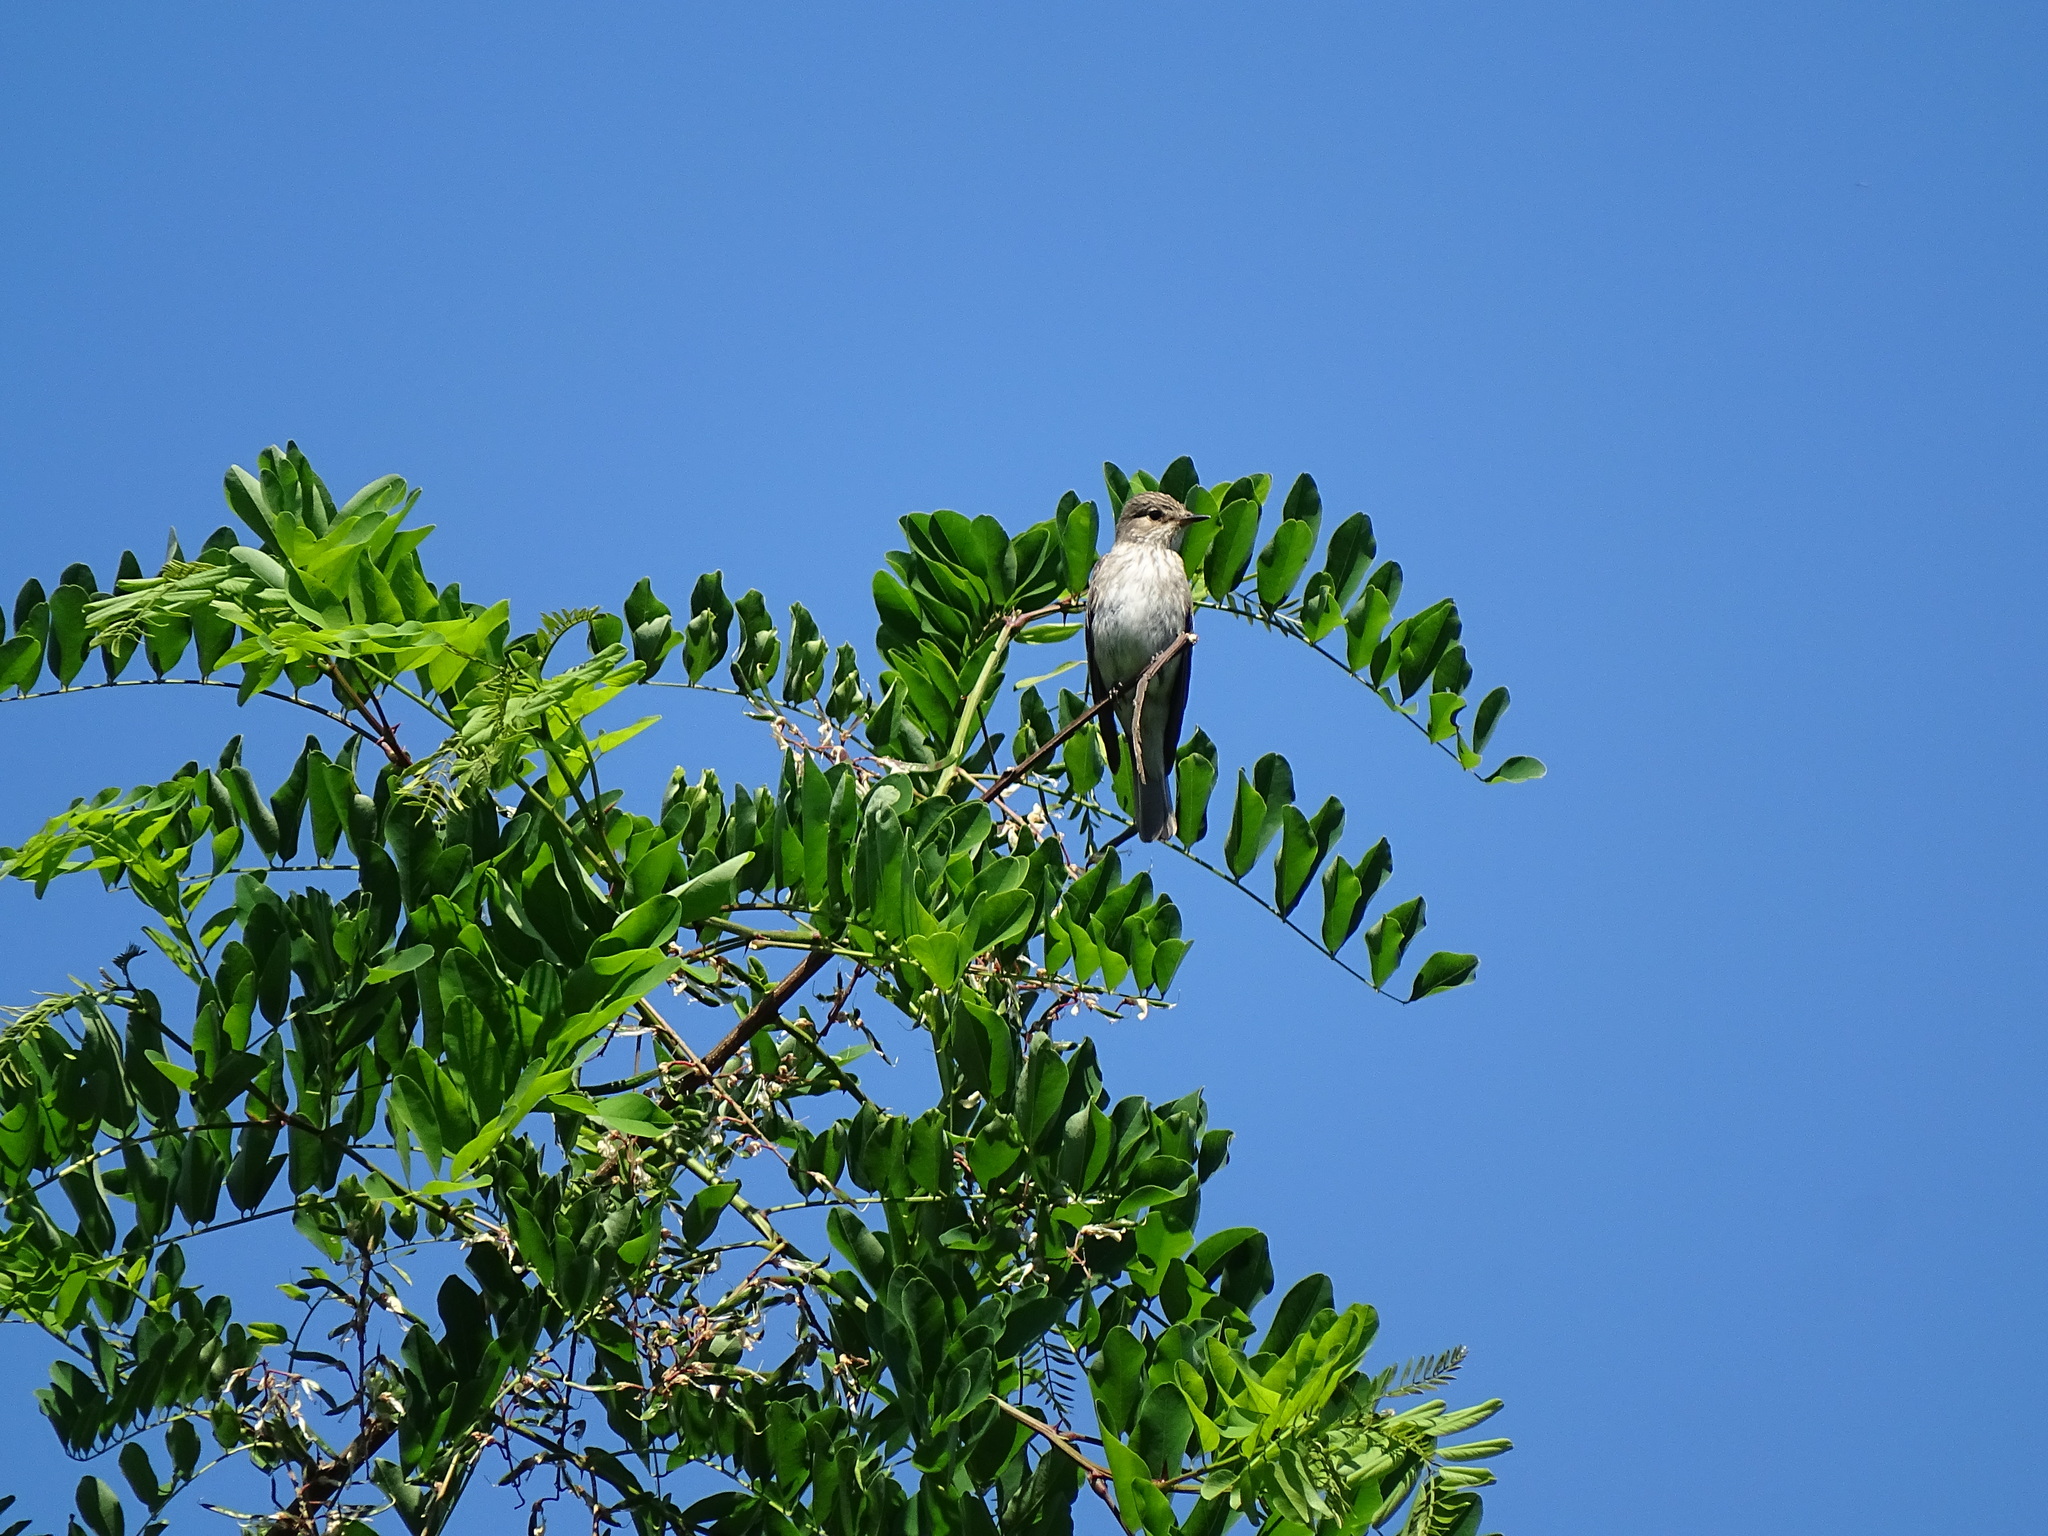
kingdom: Animalia
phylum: Chordata
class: Aves
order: Passeriformes
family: Muscicapidae
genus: Muscicapa
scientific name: Muscicapa striata
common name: Spotted flycatcher
